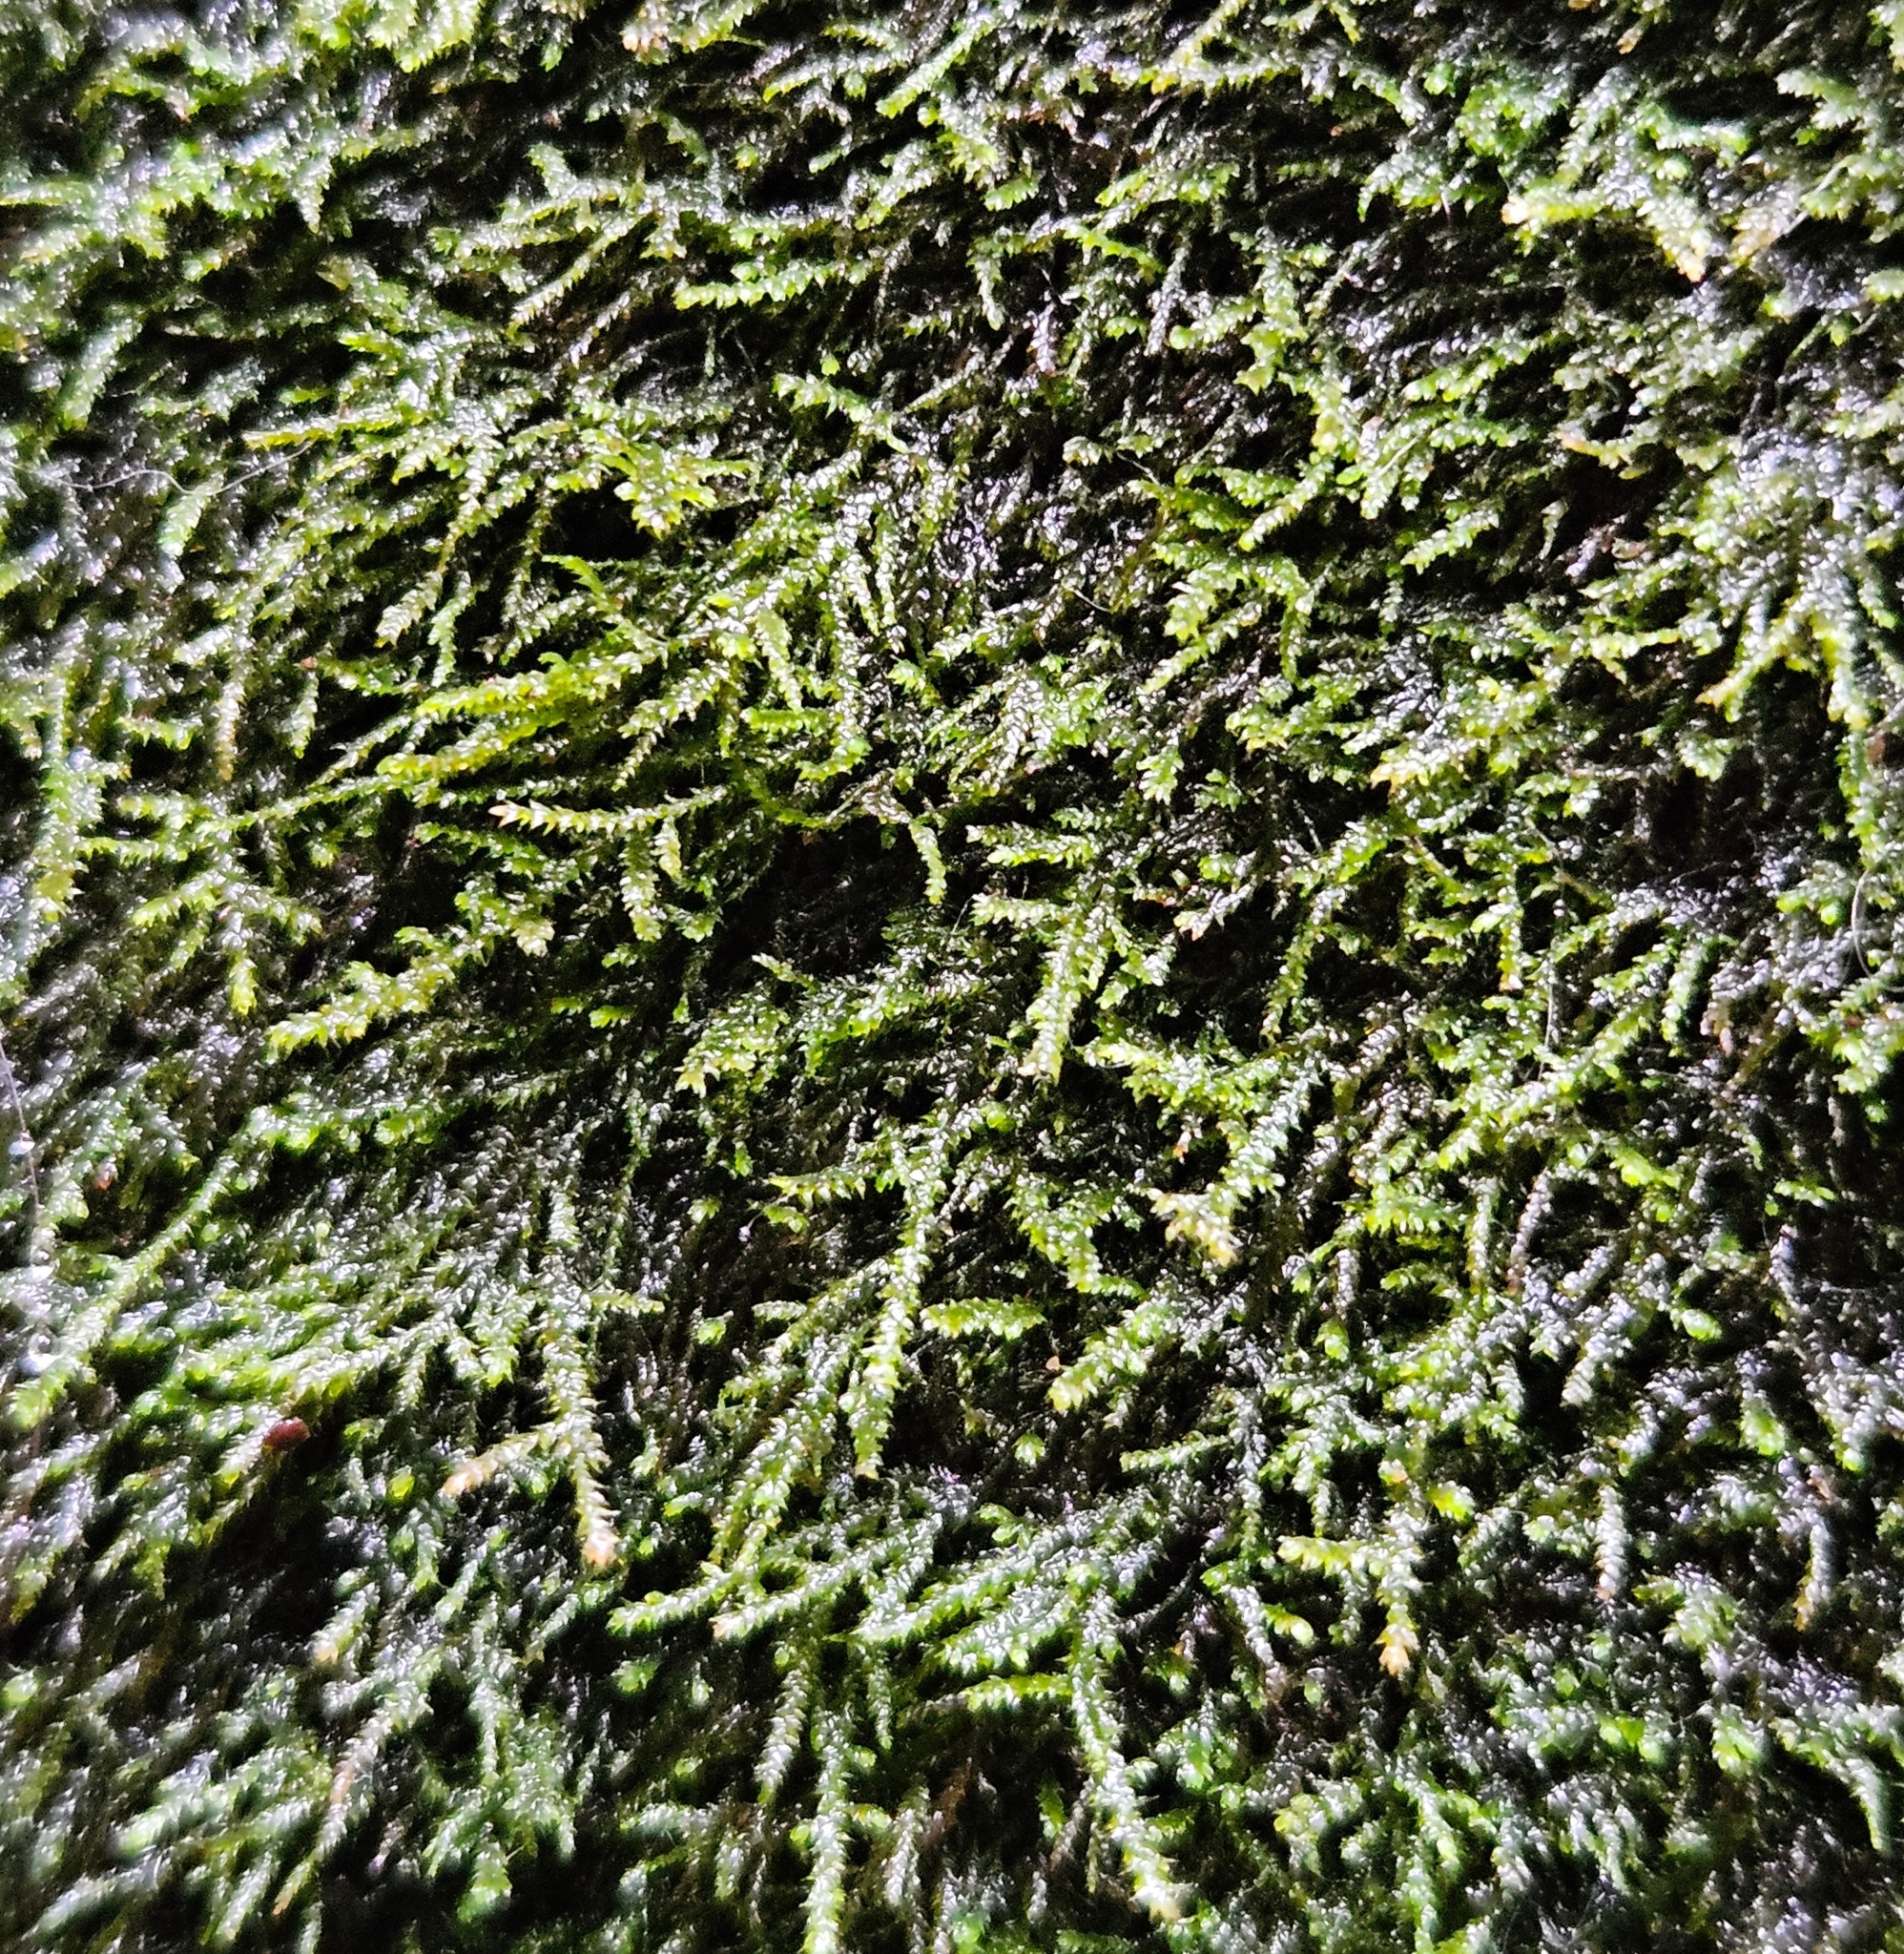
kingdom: Plantae
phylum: Bryophyta
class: Bryopsida
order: Hypnales
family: Lembophyllaceae
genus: Heterocladium
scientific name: Heterocladium heteropterum
